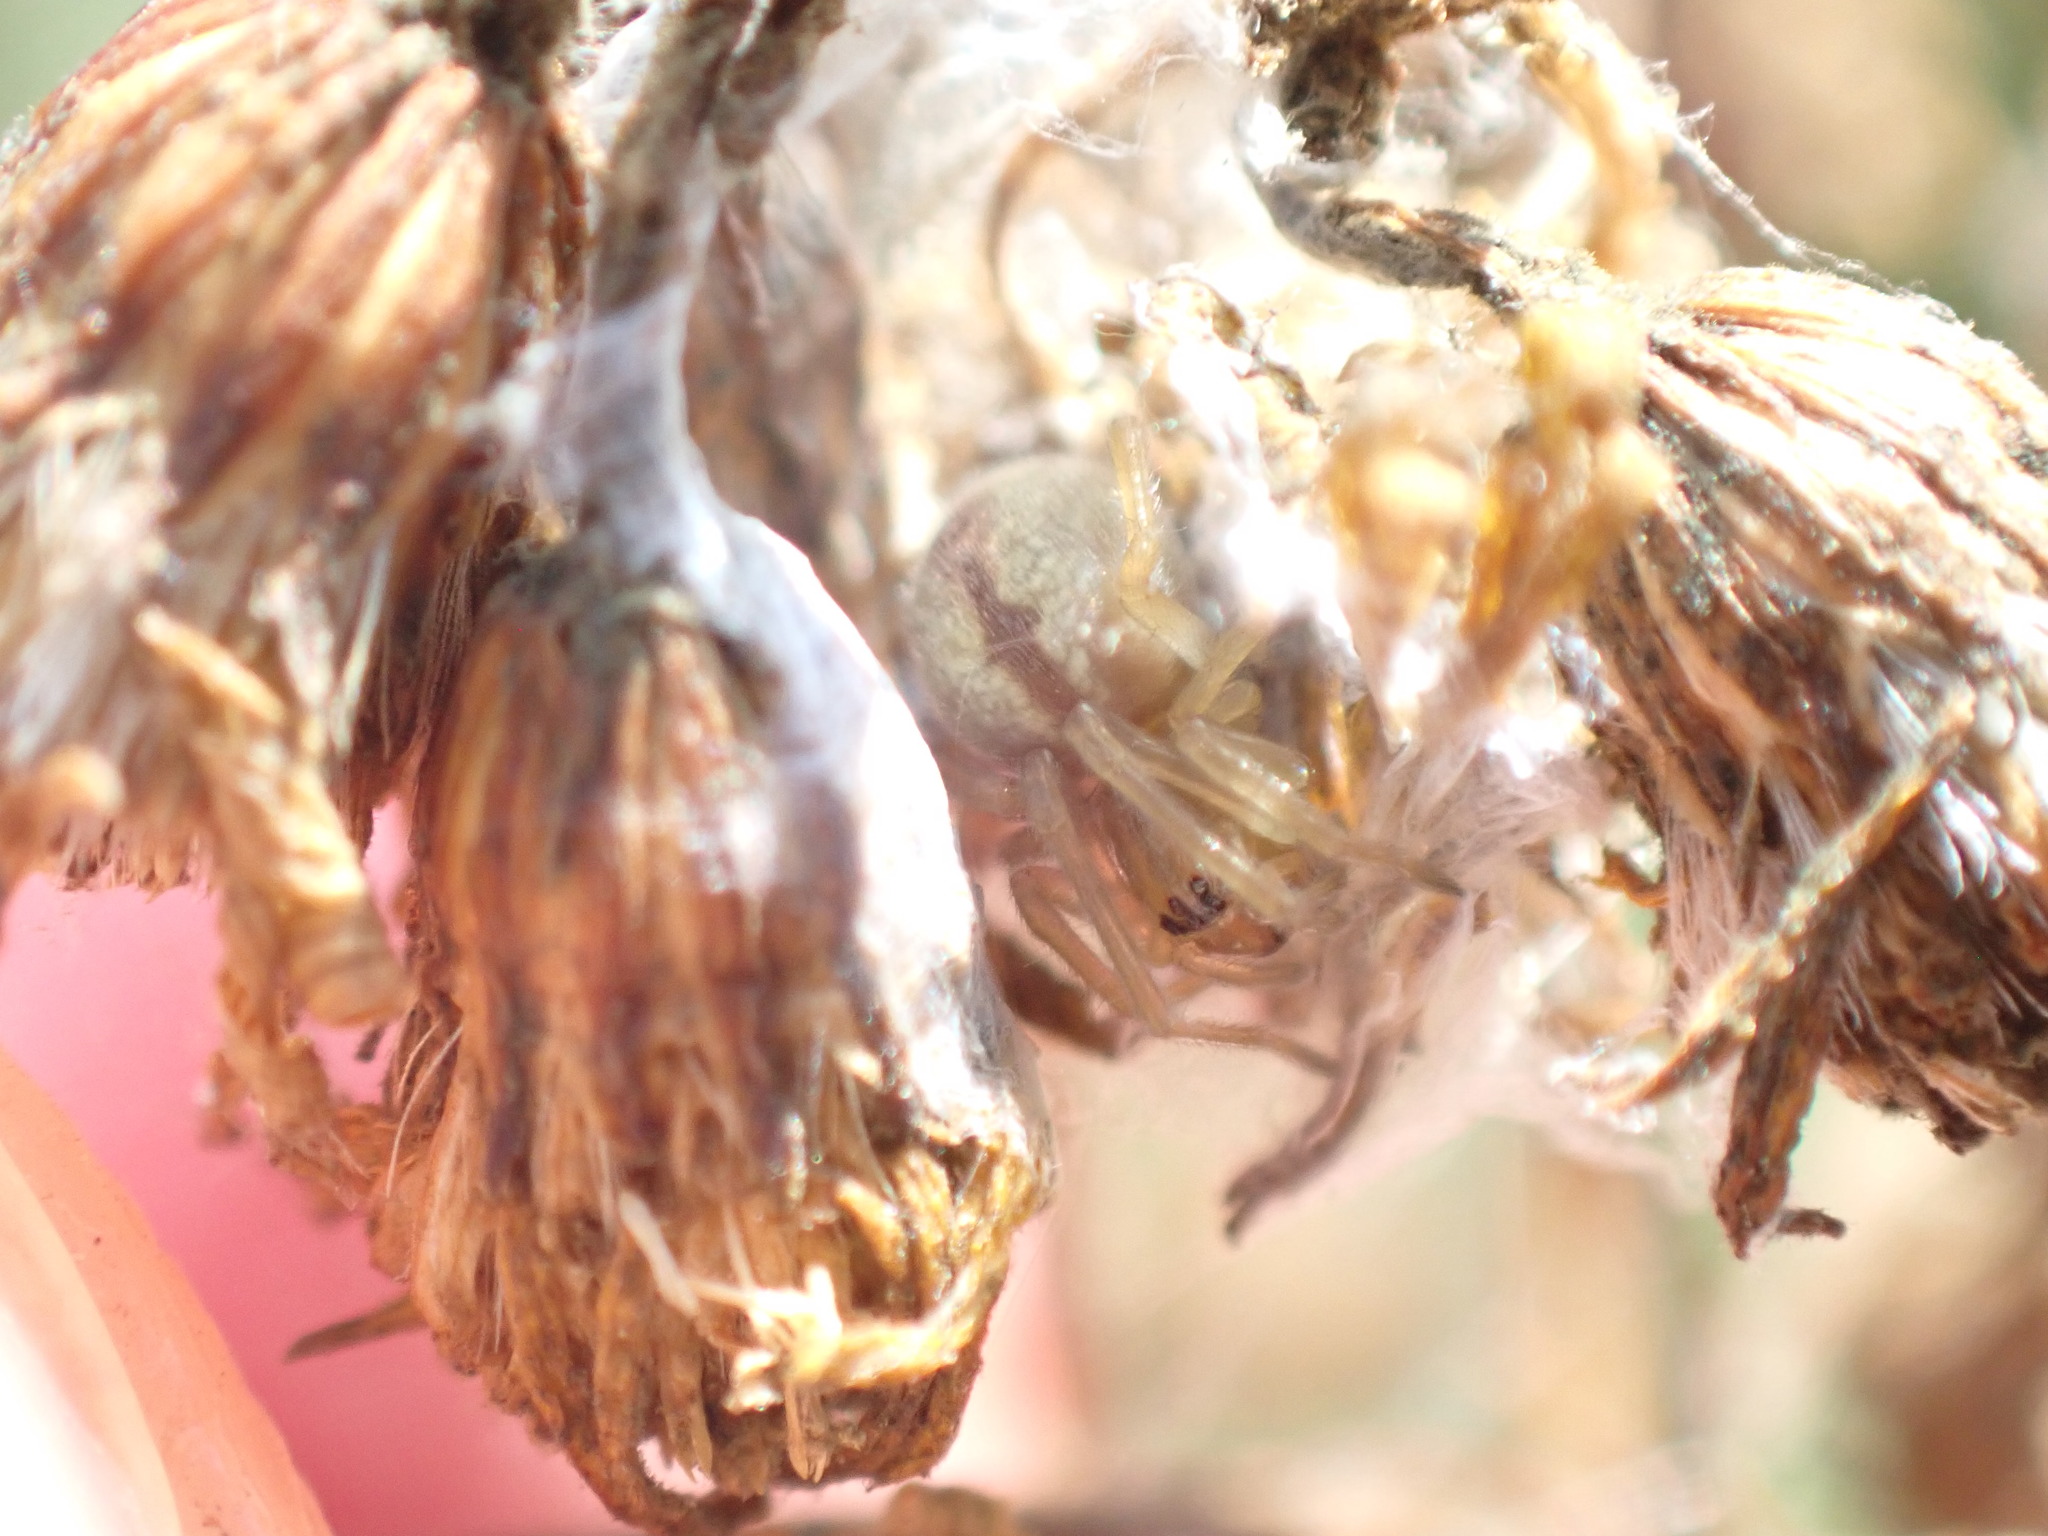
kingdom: Animalia
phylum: Arthropoda
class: Arachnida
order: Araneae
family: Cheiracanthiidae
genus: Cheiracanthium
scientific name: Cheiracanthium erraticum
